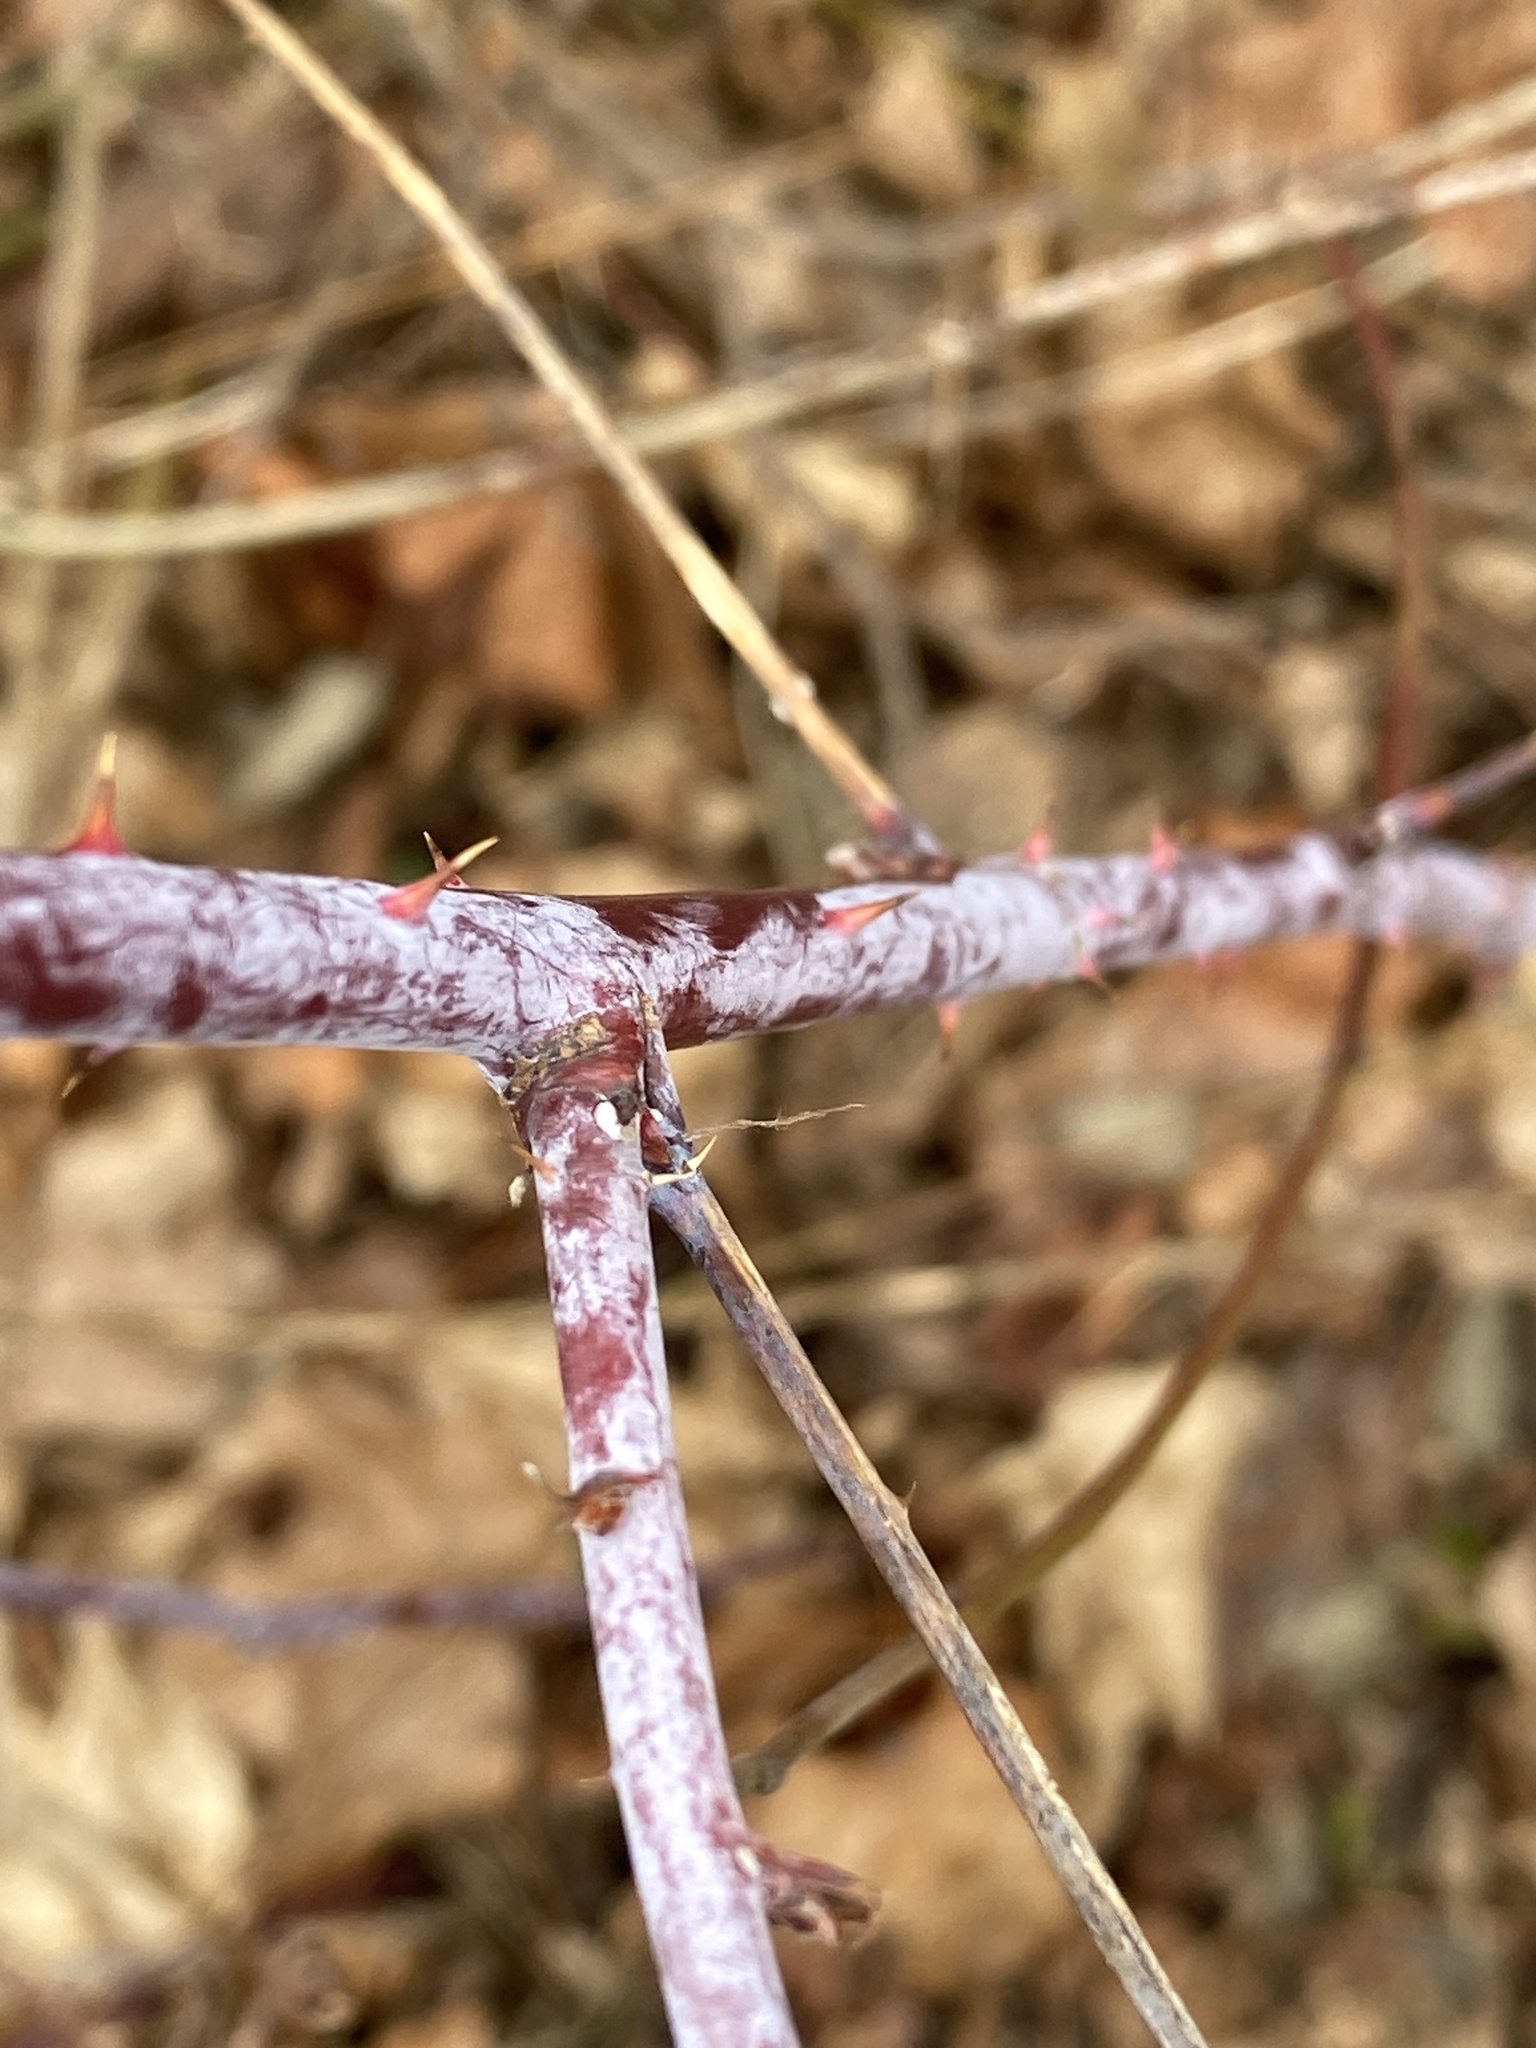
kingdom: Plantae
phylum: Tracheophyta
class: Magnoliopsida
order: Rosales
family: Rosaceae
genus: Rubus
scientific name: Rubus occidentalis
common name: Black raspberry
